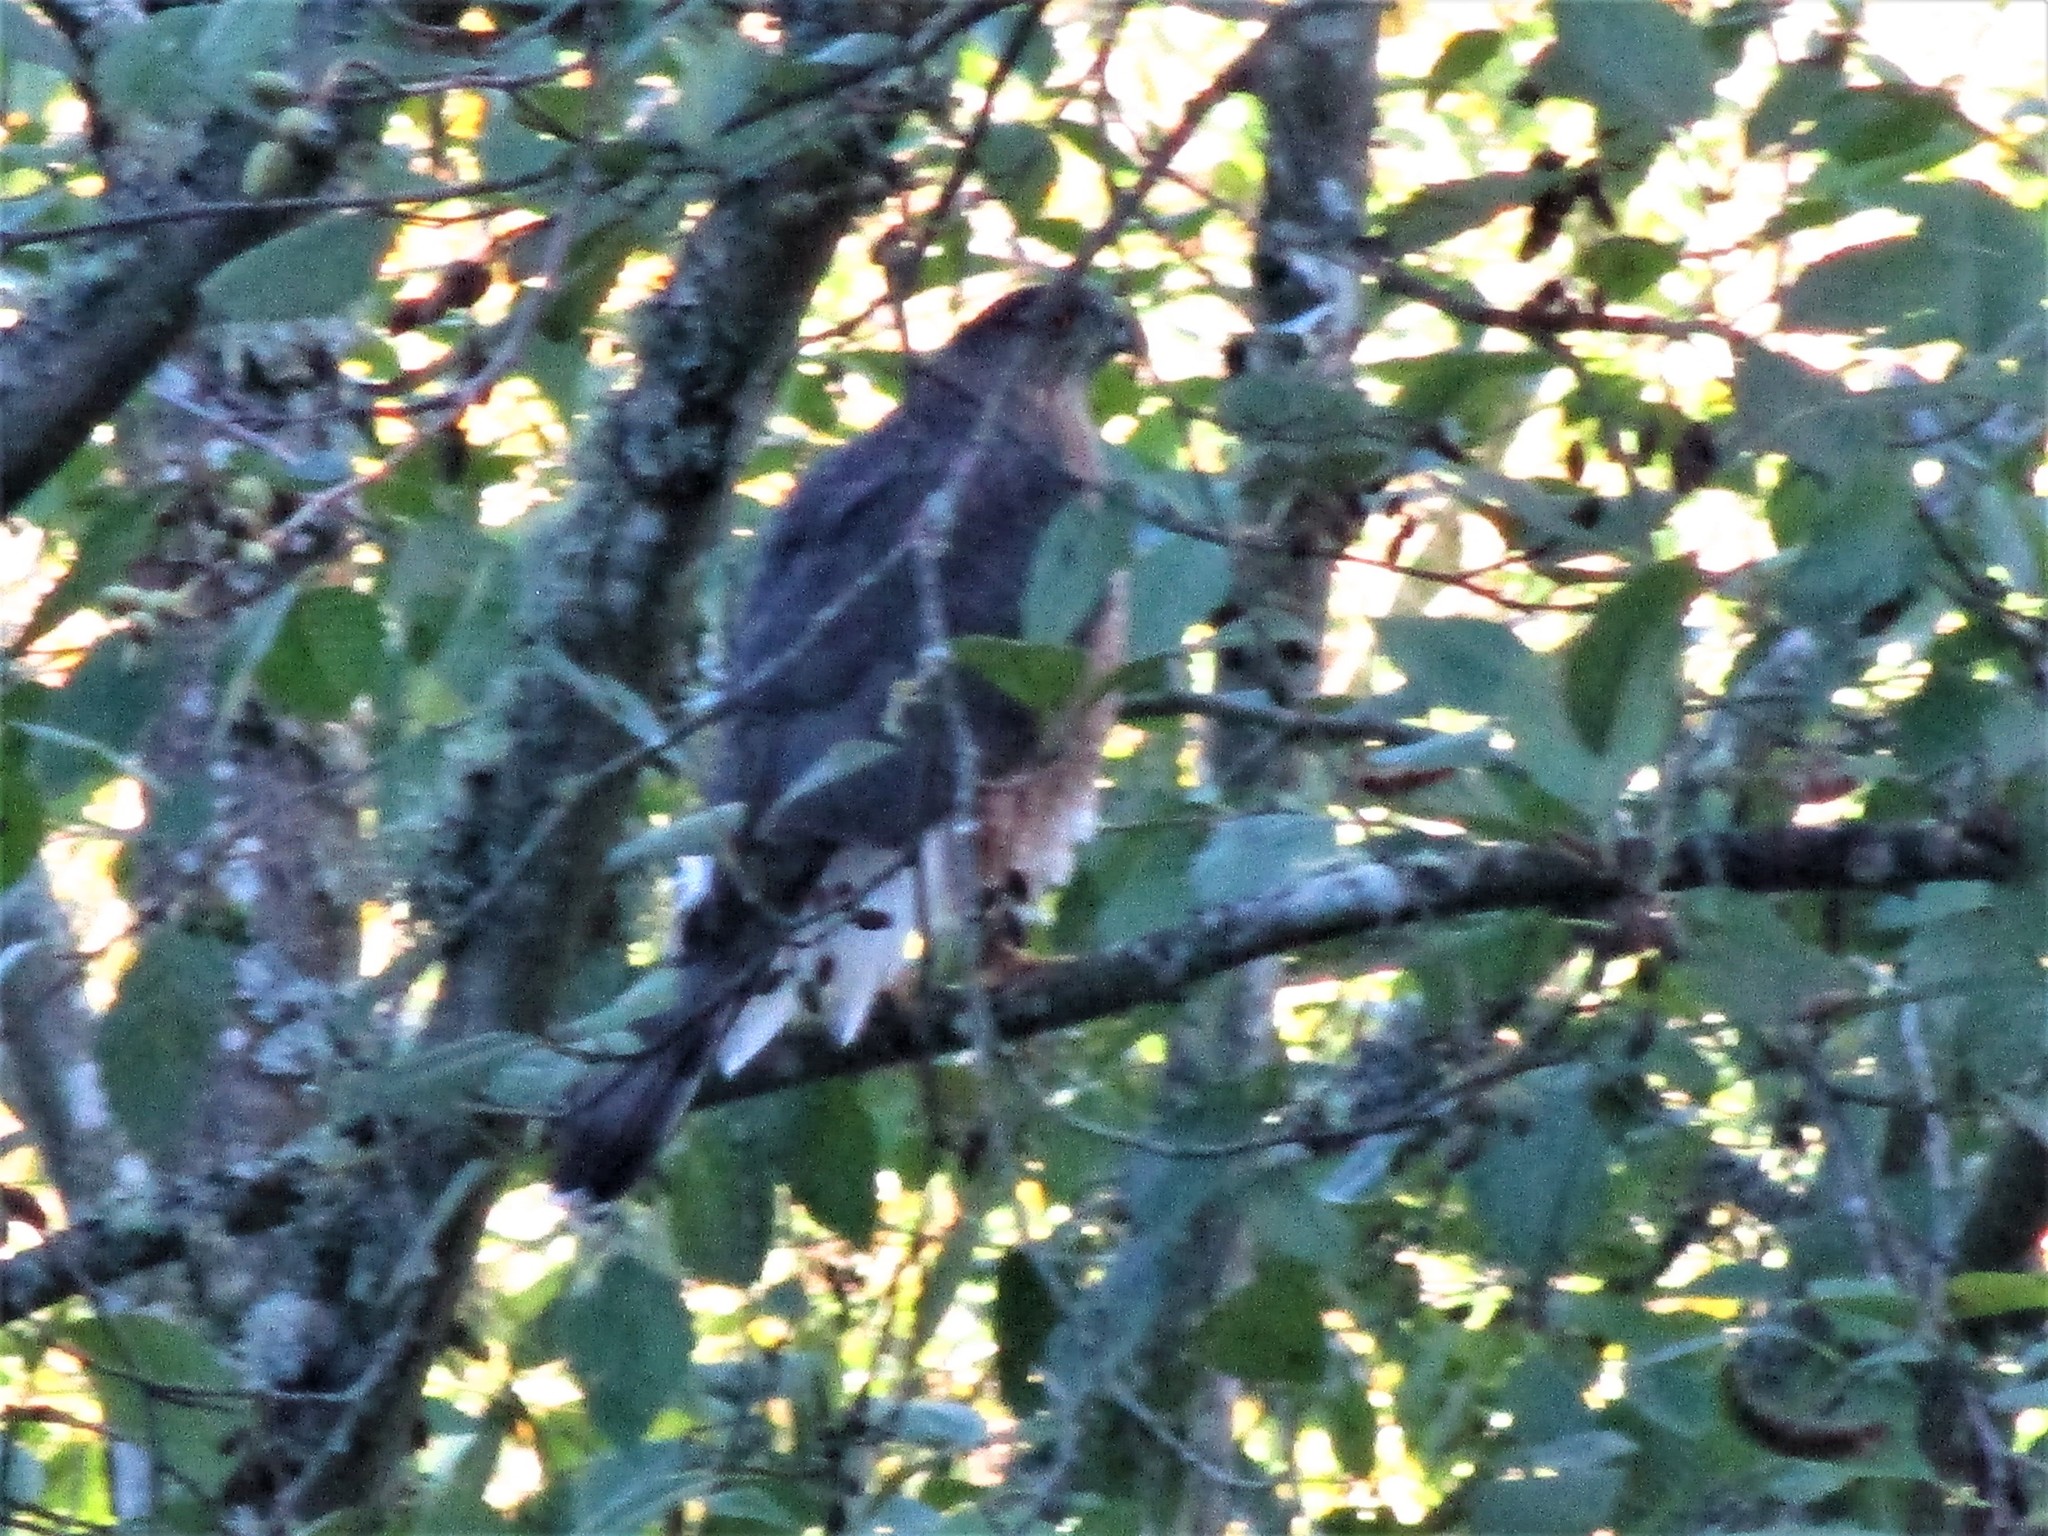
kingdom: Animalia
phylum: Chordata
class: Aves
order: Accipitriformes
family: Accipitridae
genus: Accipiter
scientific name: Accipiter cooperii
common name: Cooper's hawk
